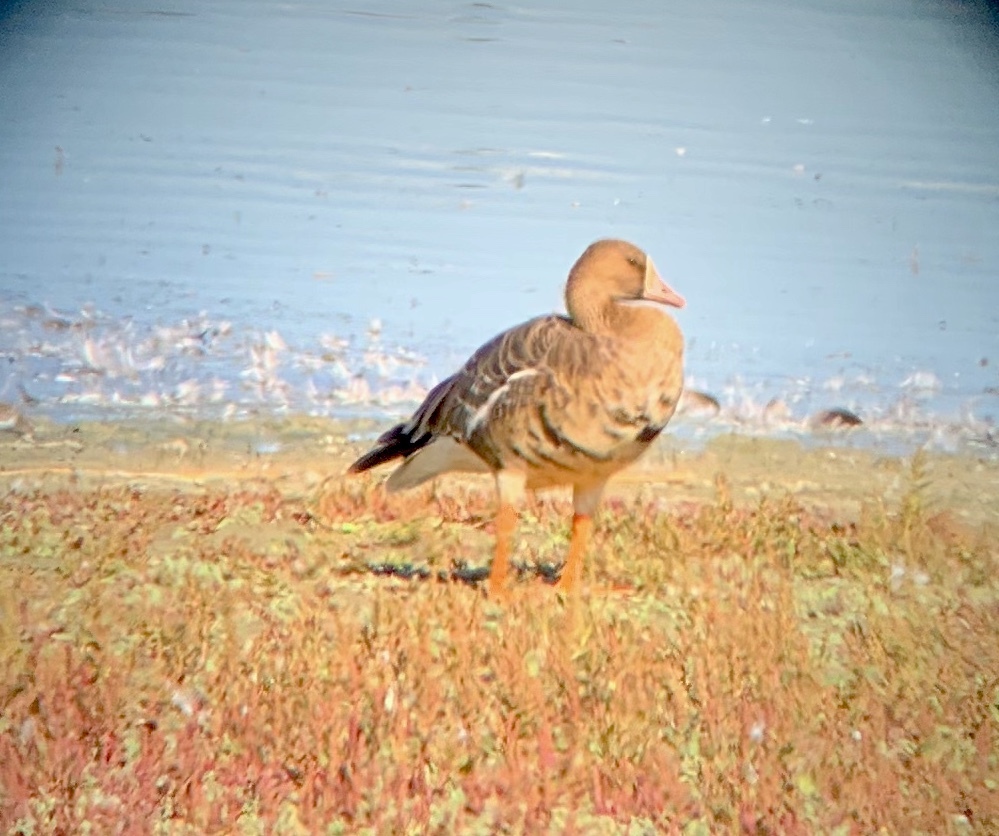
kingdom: Animalia
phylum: Chordata
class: Aves
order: Anseriformes
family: Anatidae
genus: Anser
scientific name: Anser albifrons
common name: Greater white-fronted goose
